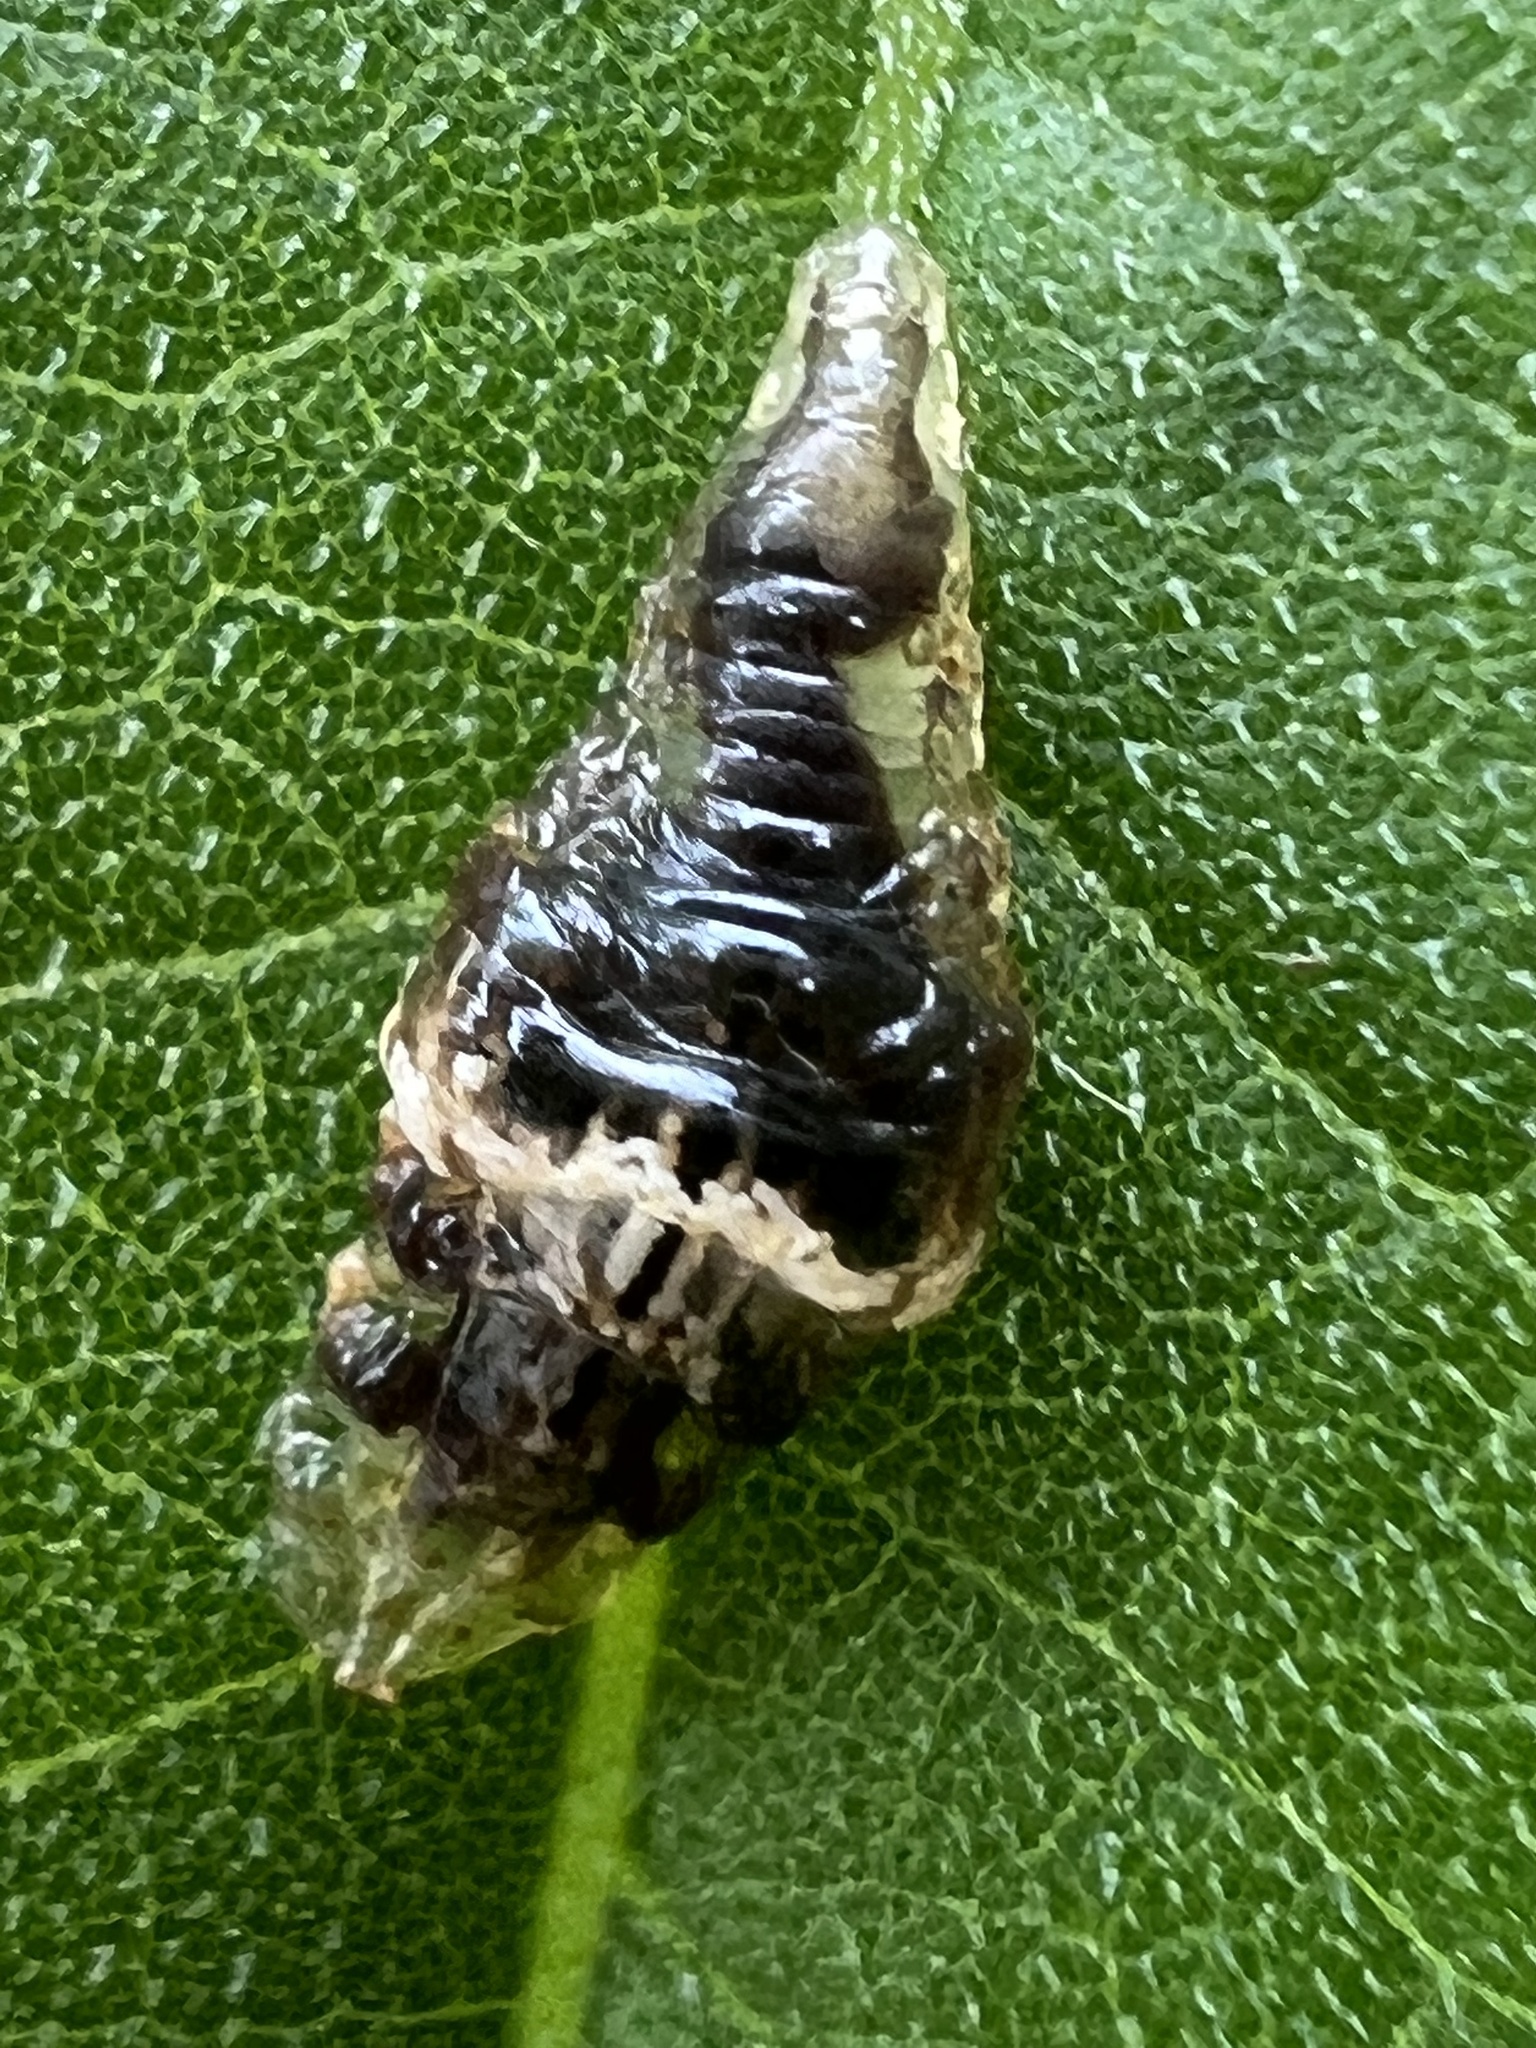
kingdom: Animalia
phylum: Arthropoda
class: Insecta
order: Diptera
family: Syrphidae
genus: Ocyptamus
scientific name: Ocyptamus fuscipennis
